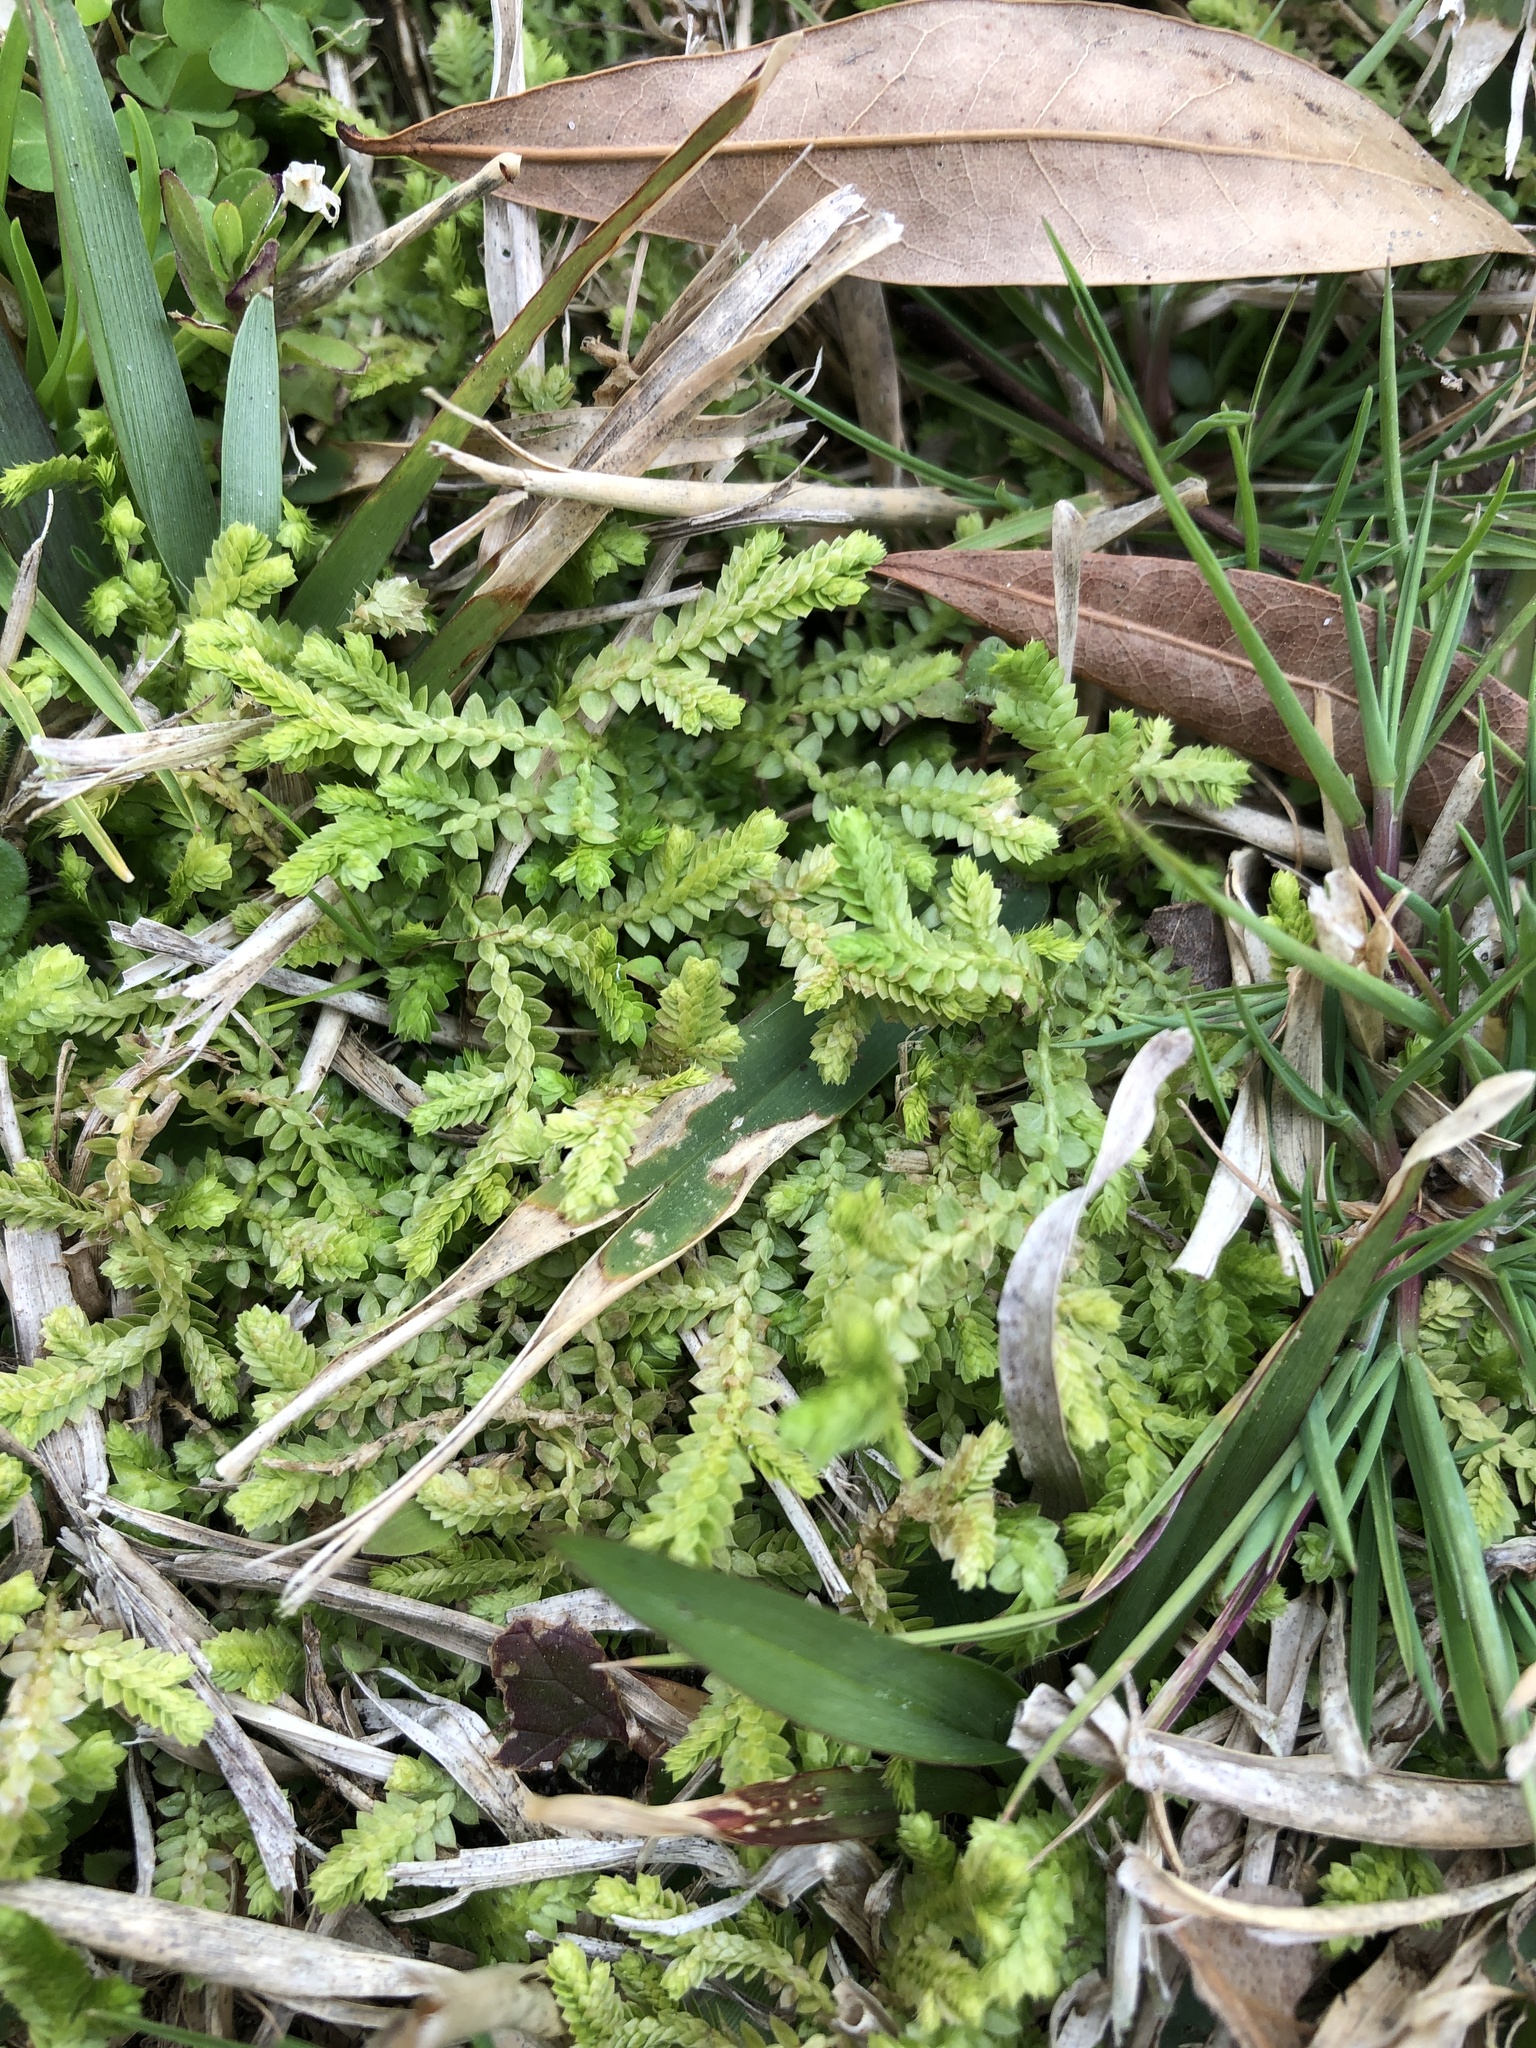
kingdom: Plantae
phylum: Tracheophyta
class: Lycopodiopsida
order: Selaginellales
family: Selaginellaceae
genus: Selaginella
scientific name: Selaginella apoda
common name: Creeping spikemoss
